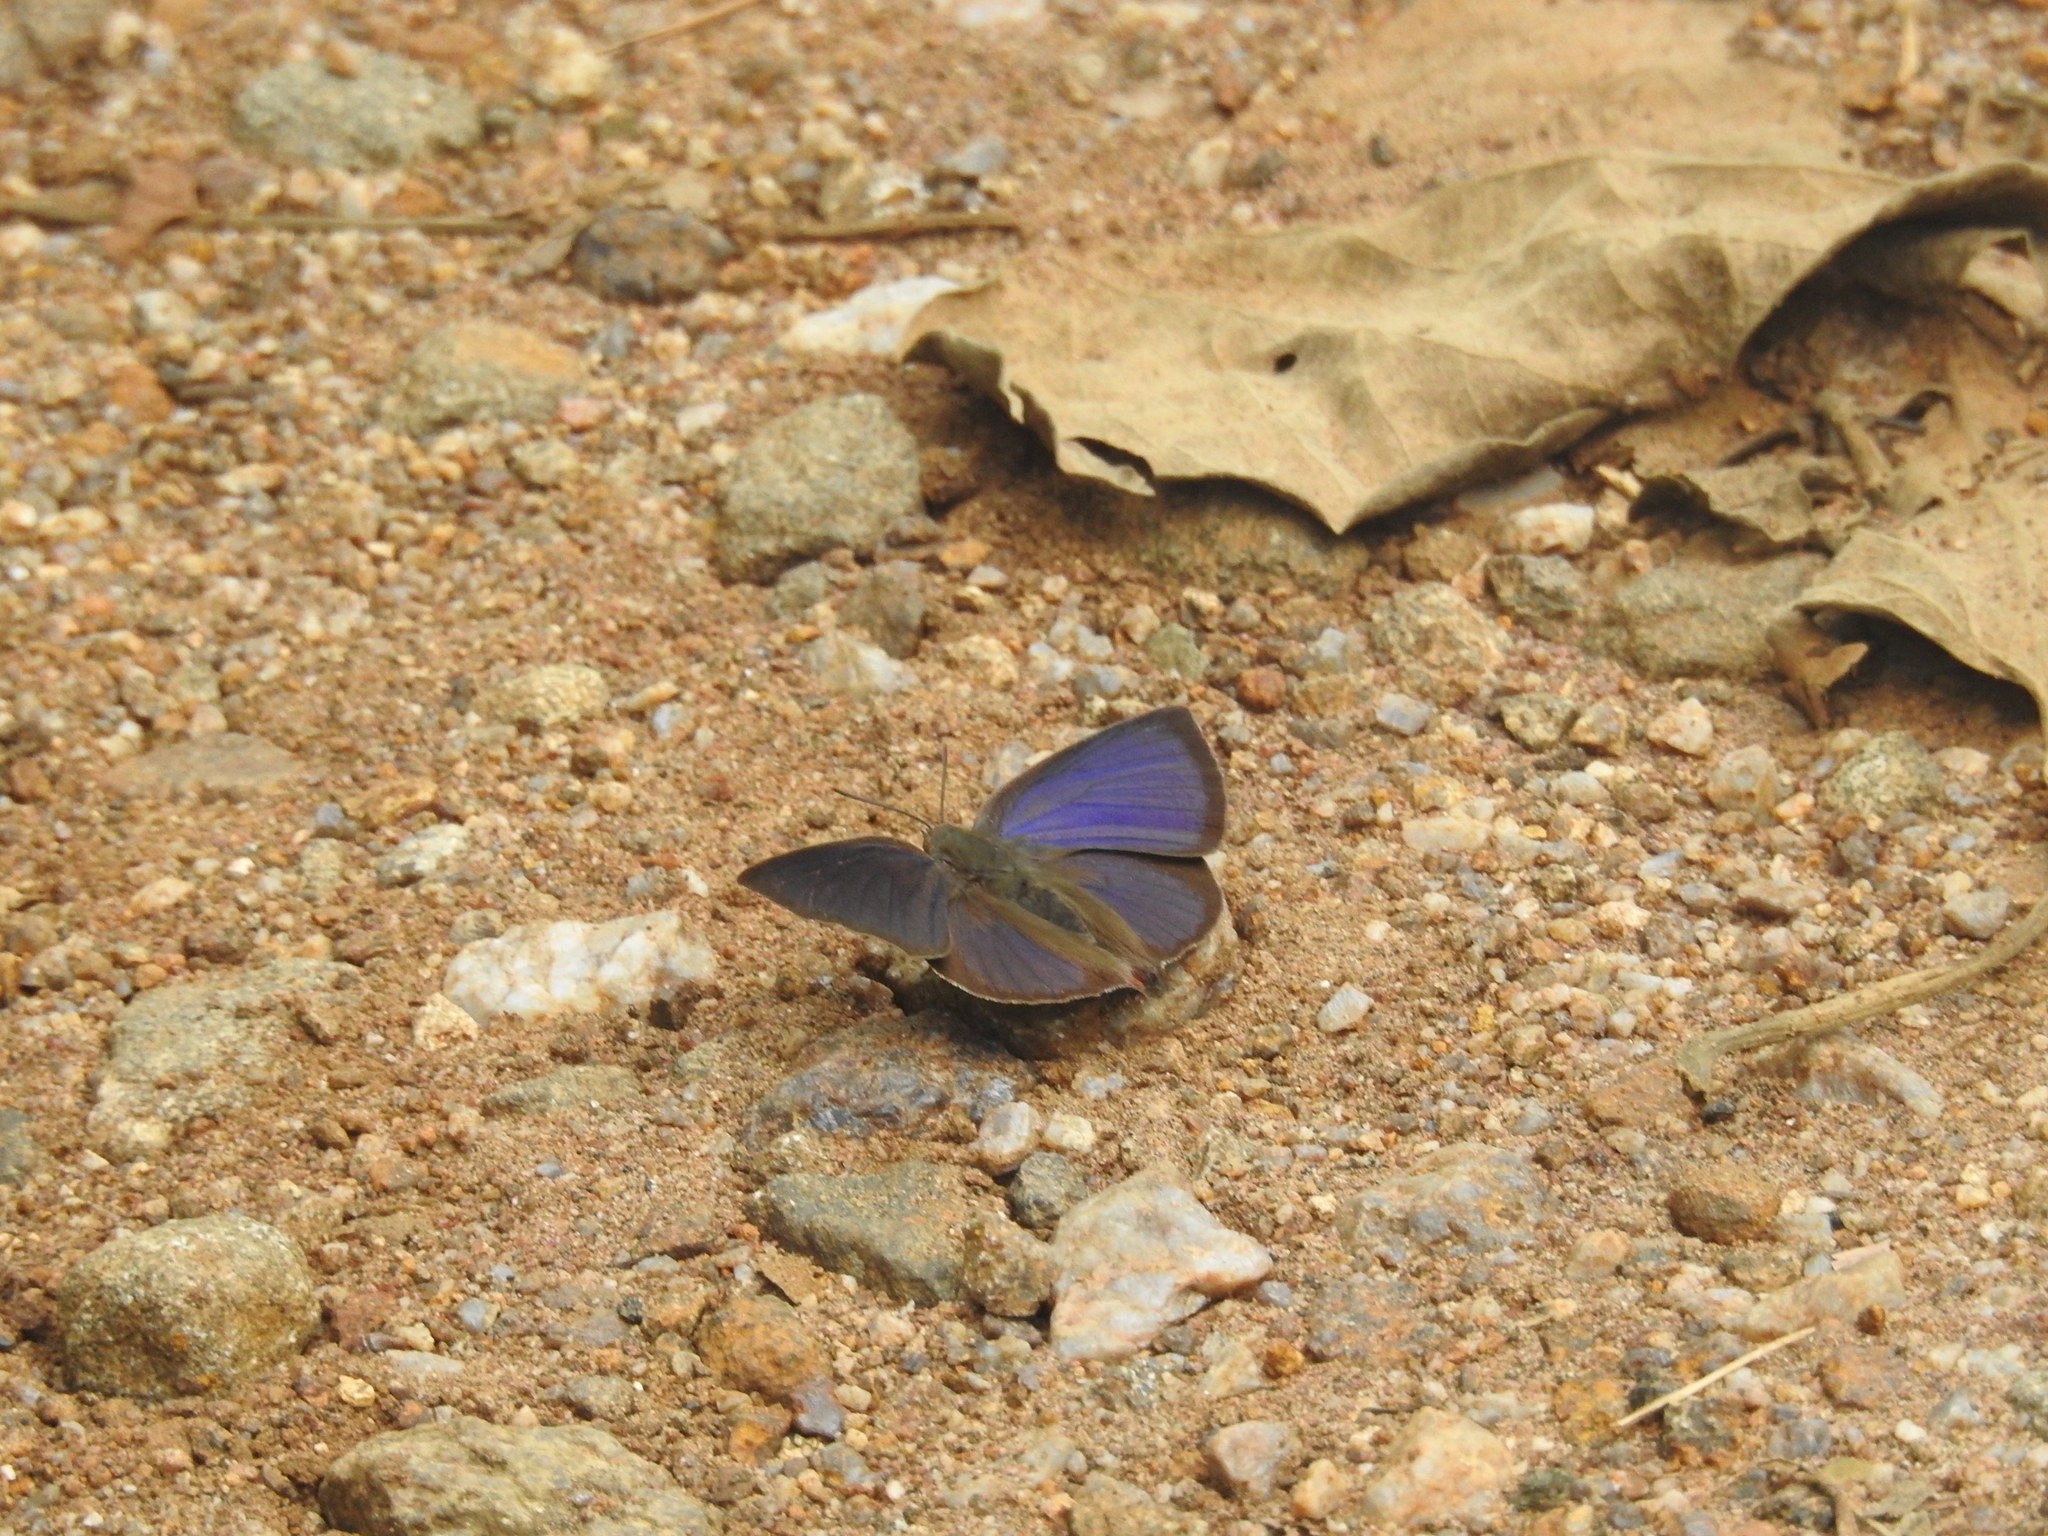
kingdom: Animalia
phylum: Arthropoda
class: Insecta
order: Lepidoptera
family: Lycaenidae
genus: Amblypodia
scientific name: Amblypodia anita
